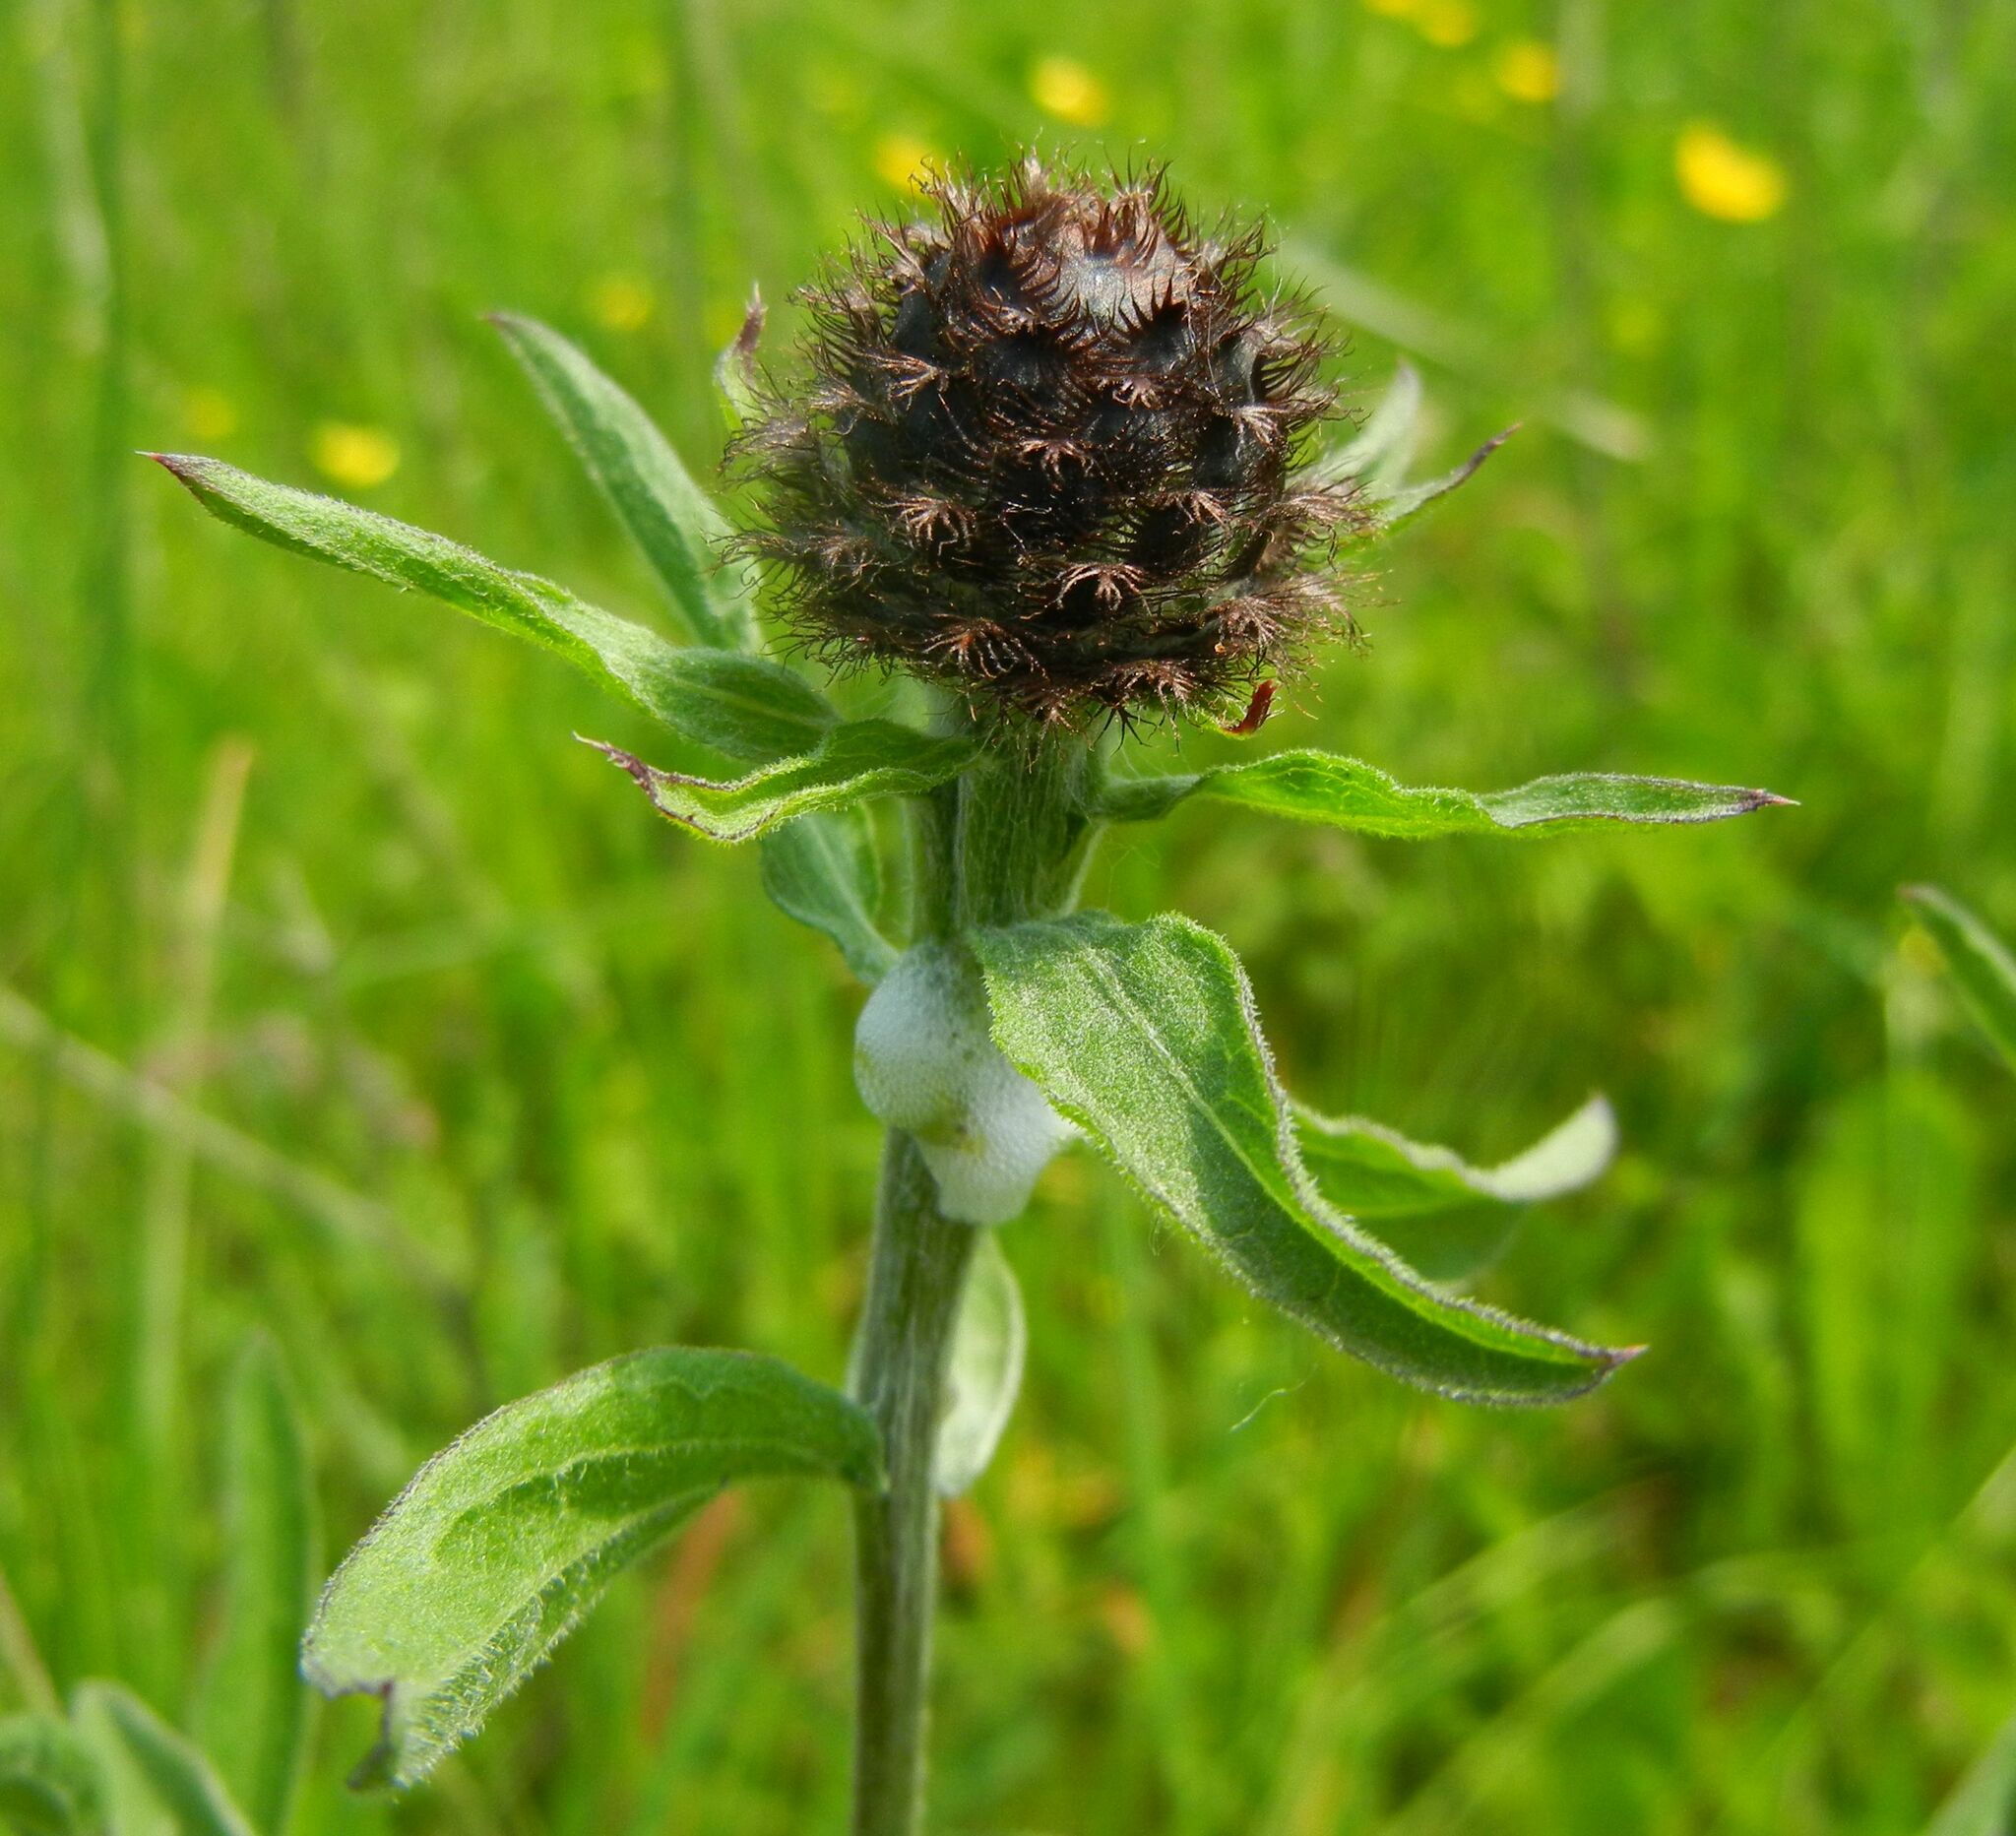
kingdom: Plantae
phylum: Tracheophyta
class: Magnoliopsida
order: Asterales
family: Asteraceae
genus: Centaurea
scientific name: Centaurea nigra
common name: Lesser knapweed
